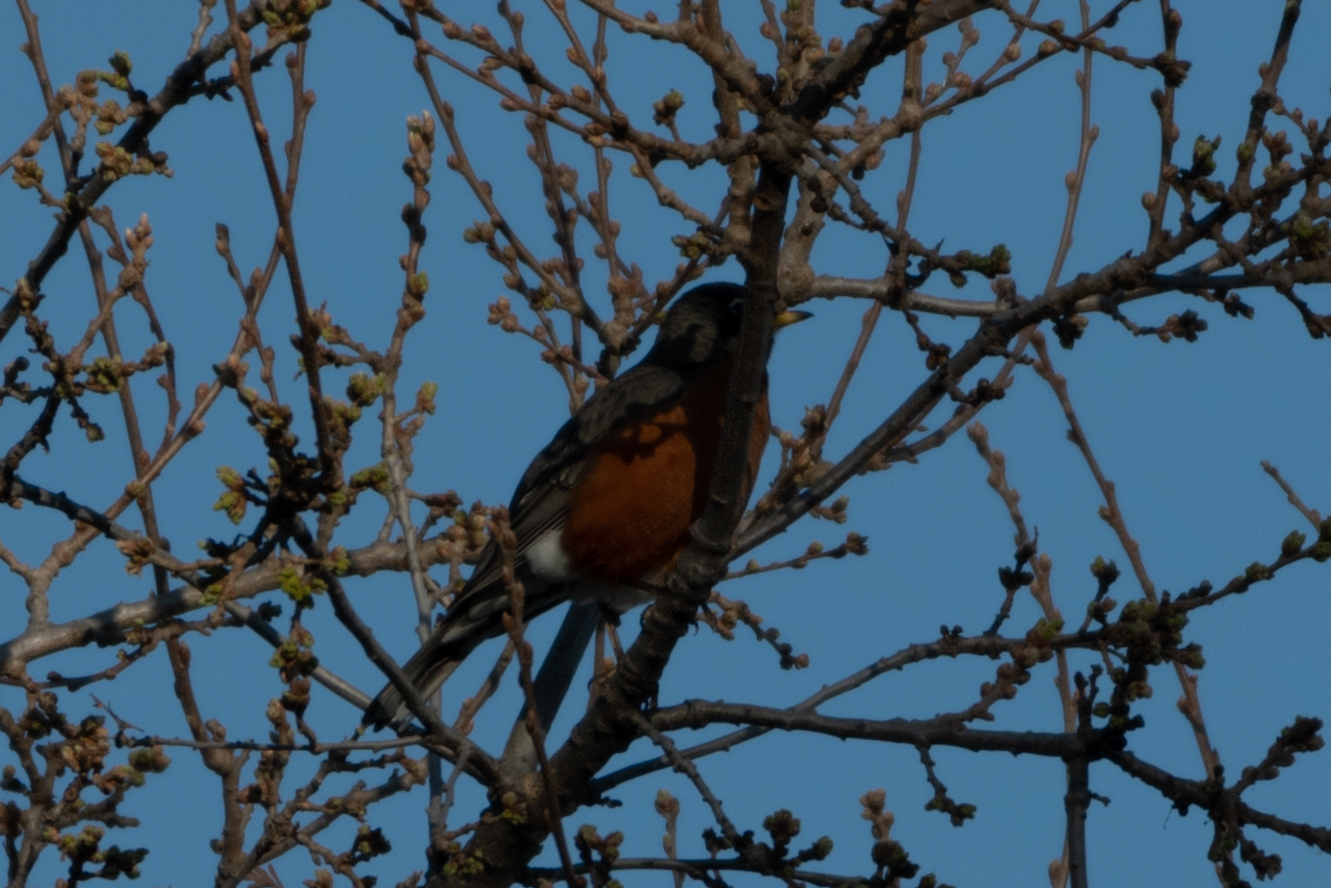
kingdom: Animalia
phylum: Chordata
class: Aves
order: Passeriformes
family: Turdidae
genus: Turdus
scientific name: Turdus migratorius
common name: American robin
